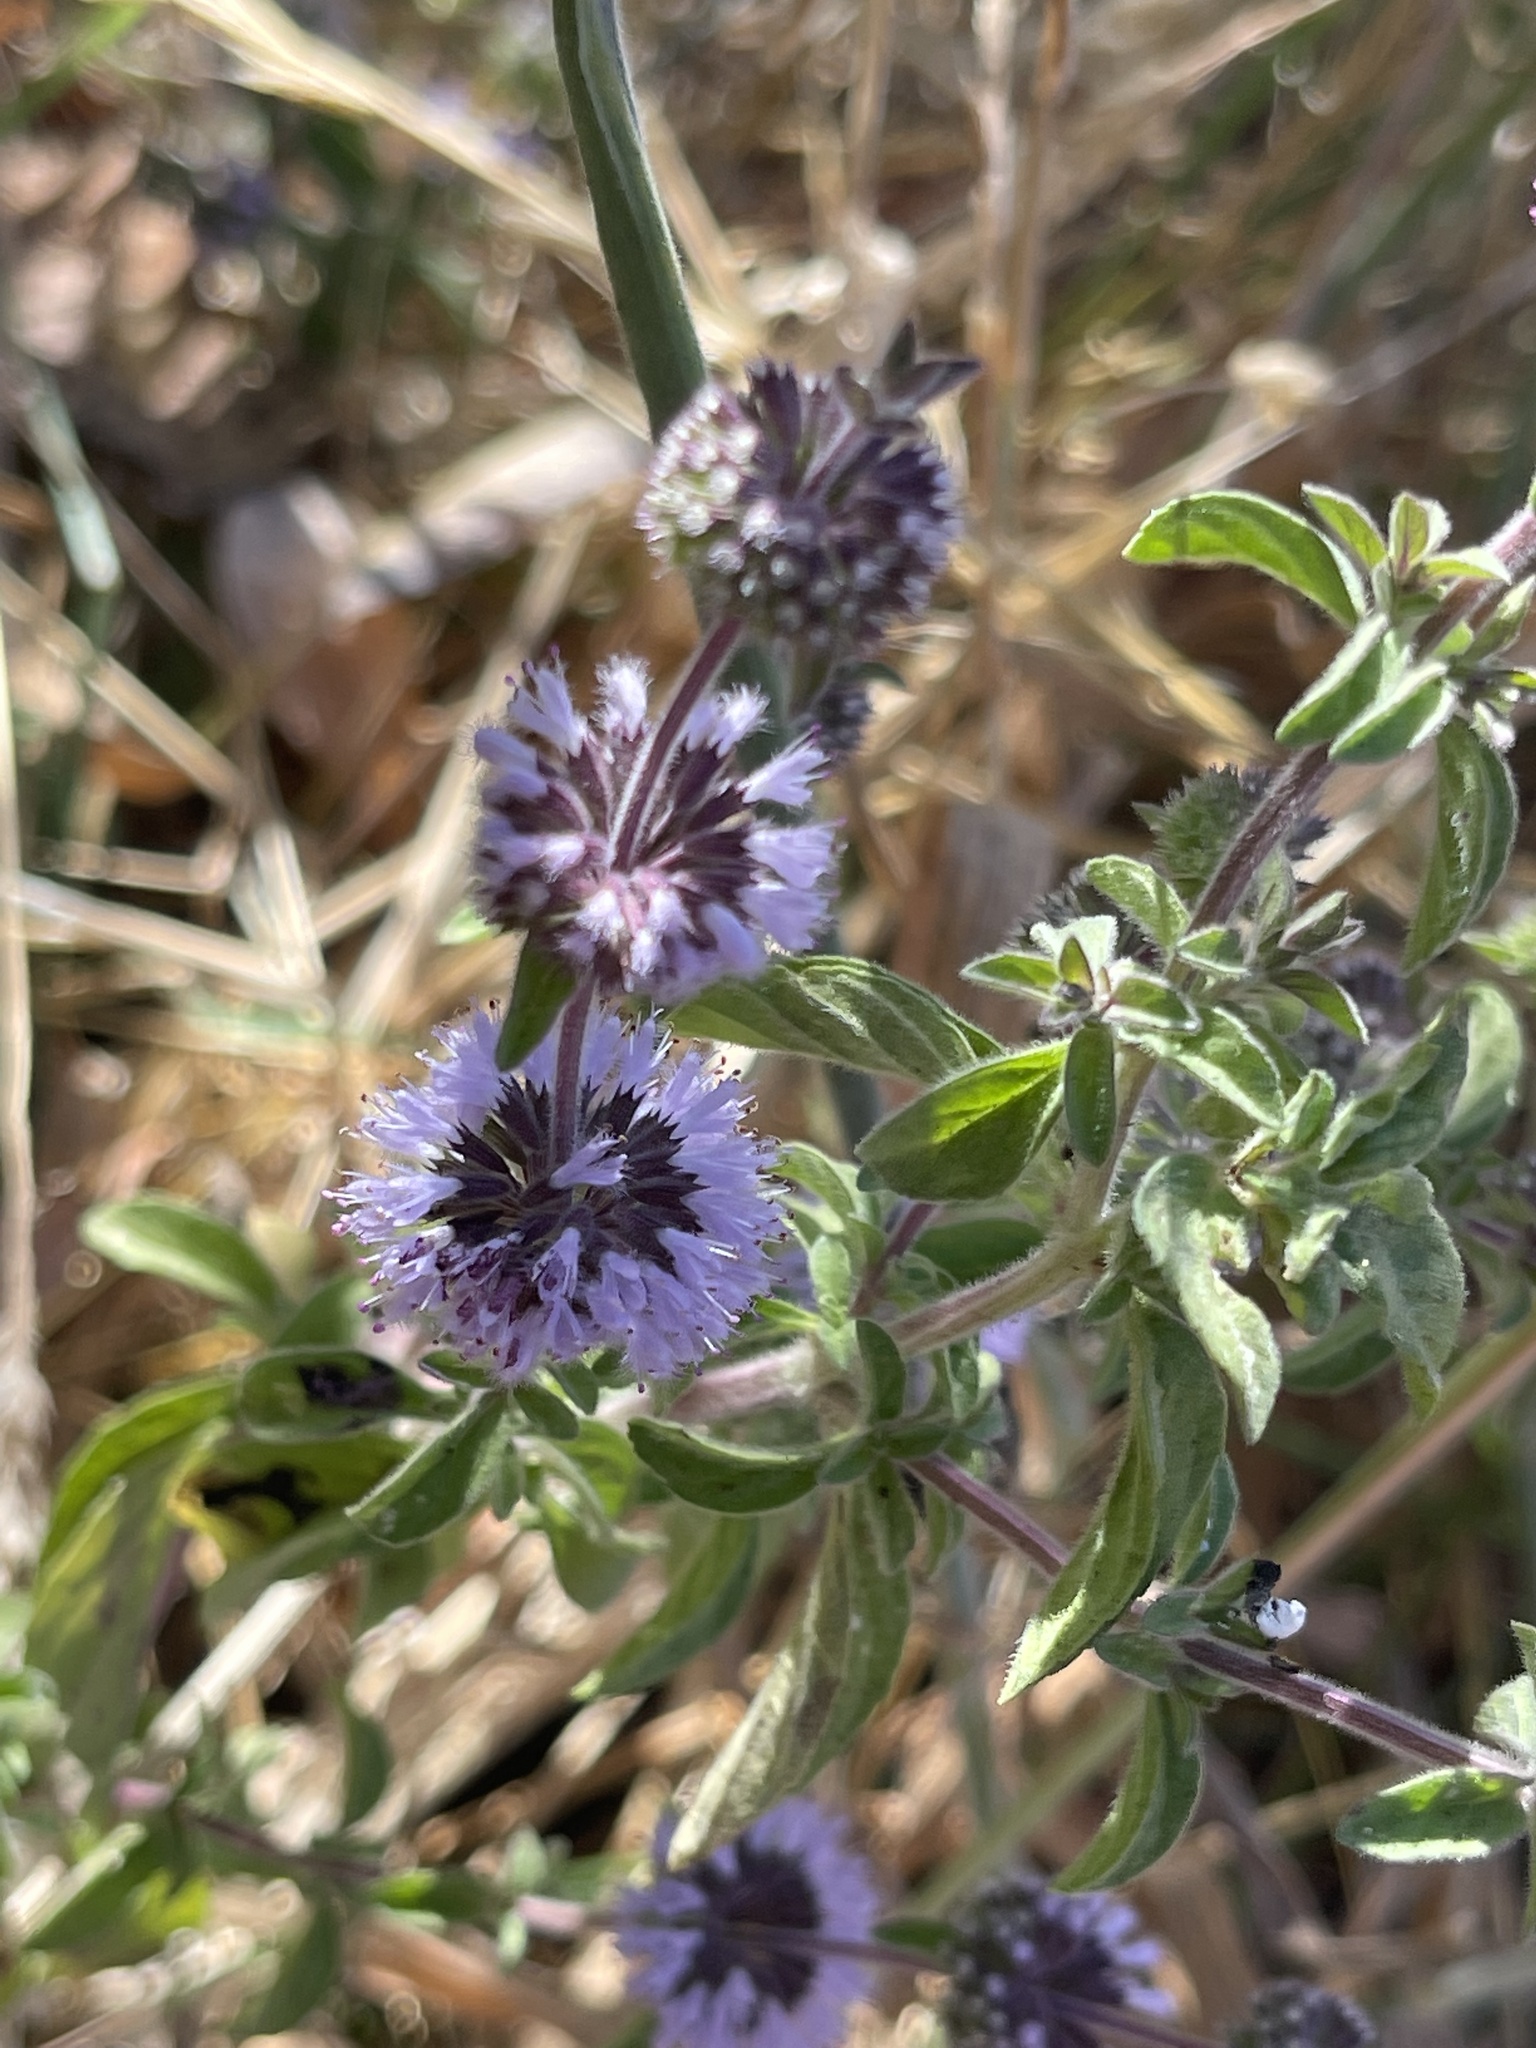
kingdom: Plantae
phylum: Tracheophyta
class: Magnoliopsida
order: Lamiales
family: Lamiaceae
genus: Mentha
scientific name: Mentha pulegium
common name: Pennyroyal
